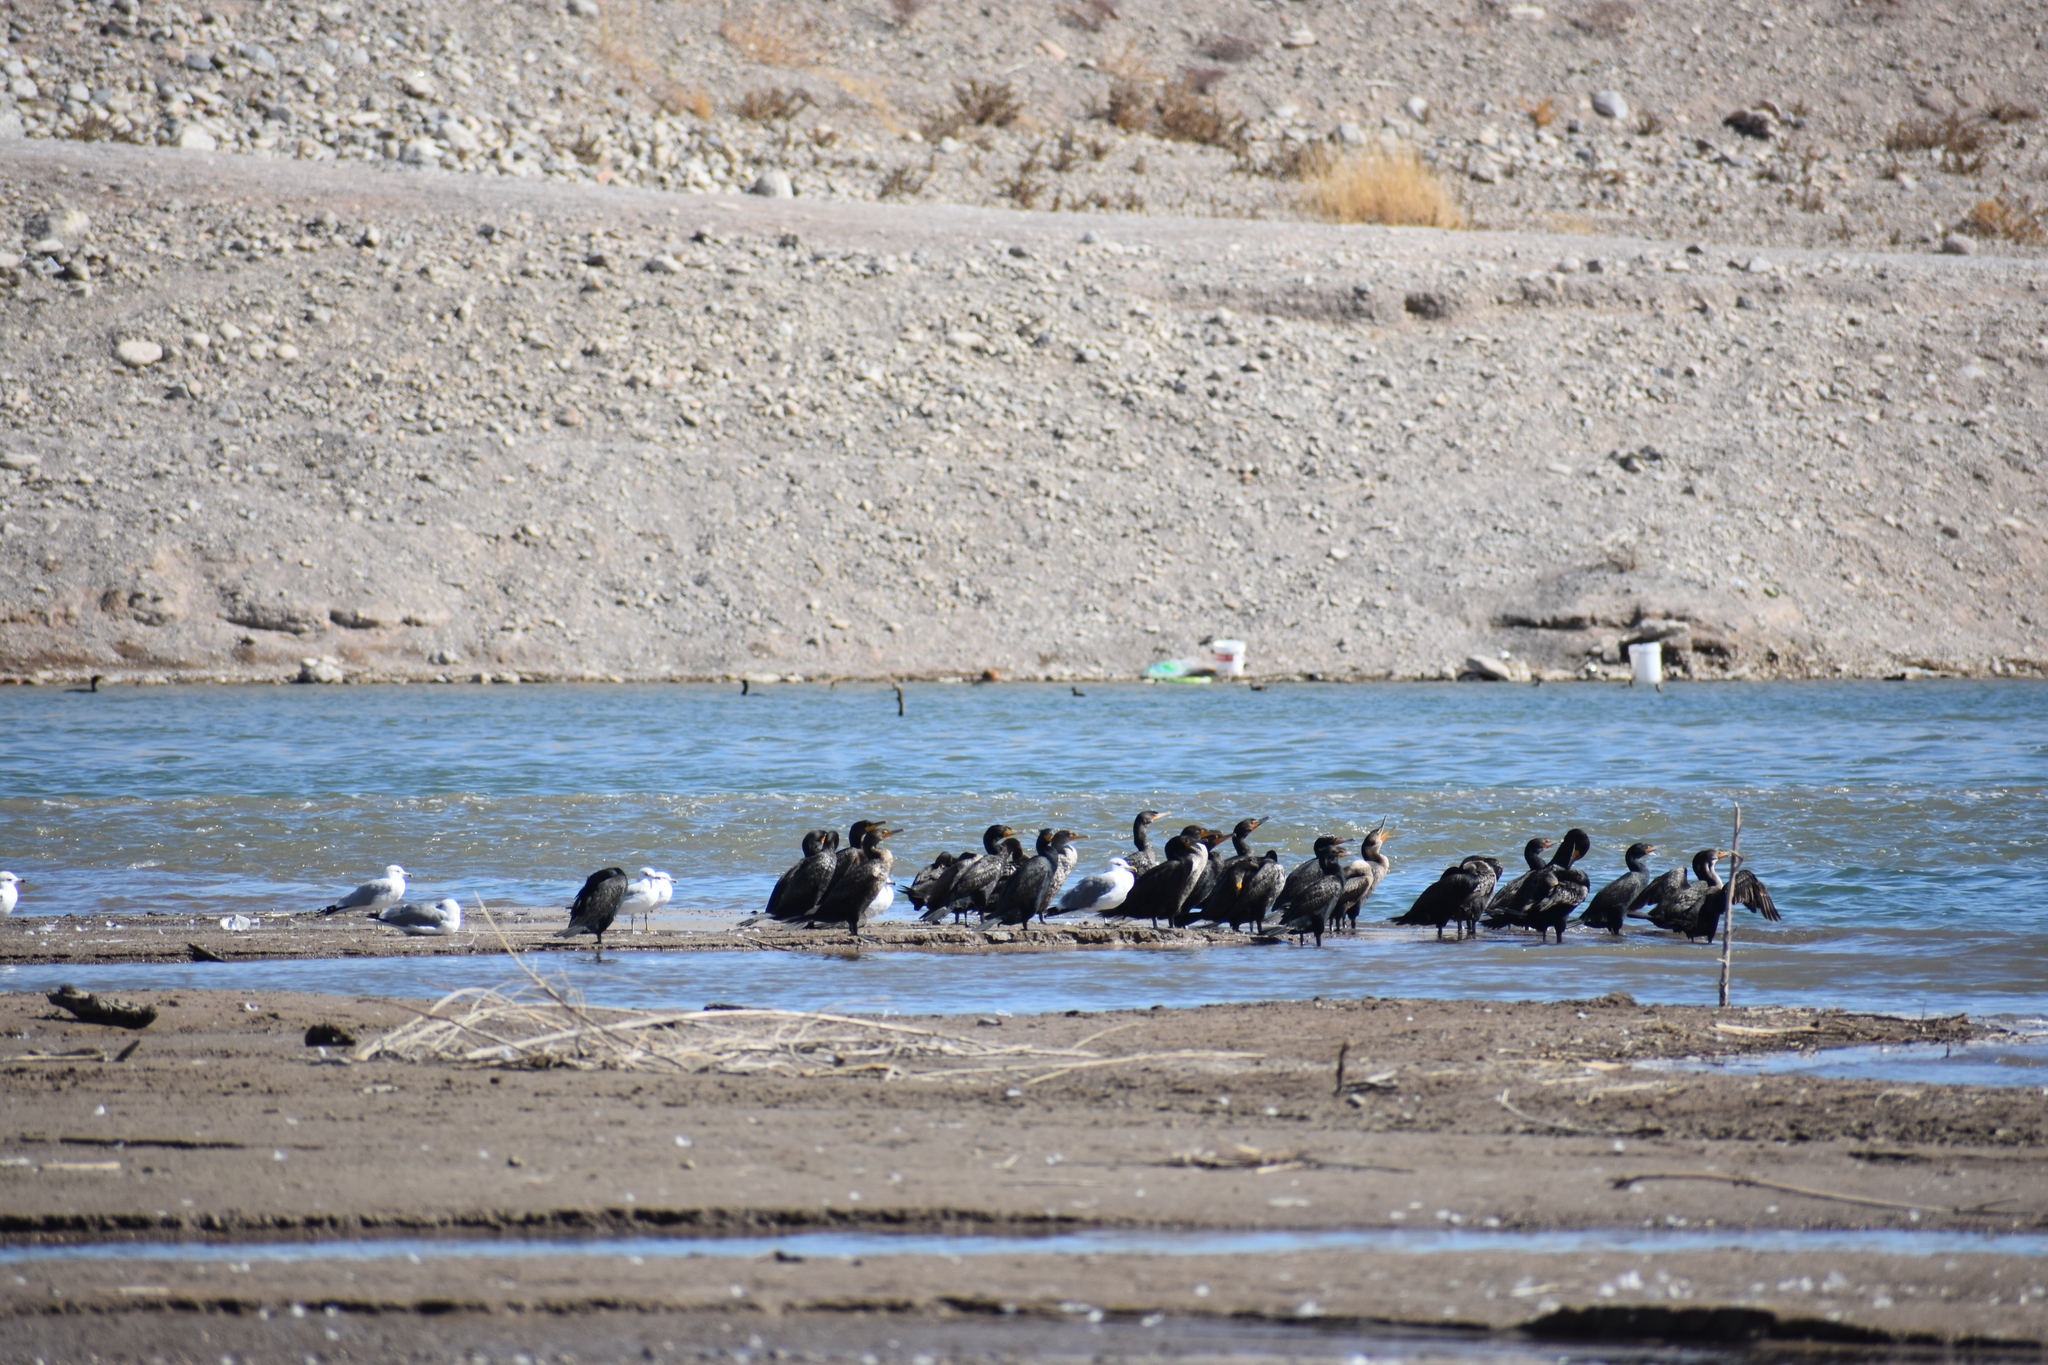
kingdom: Animalia
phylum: Chordata
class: Aves
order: Suliformes
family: Phalacrocoracidae
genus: Phalacrocorax
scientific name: Phalacrocorax auritus
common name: Double-crested cormorant
